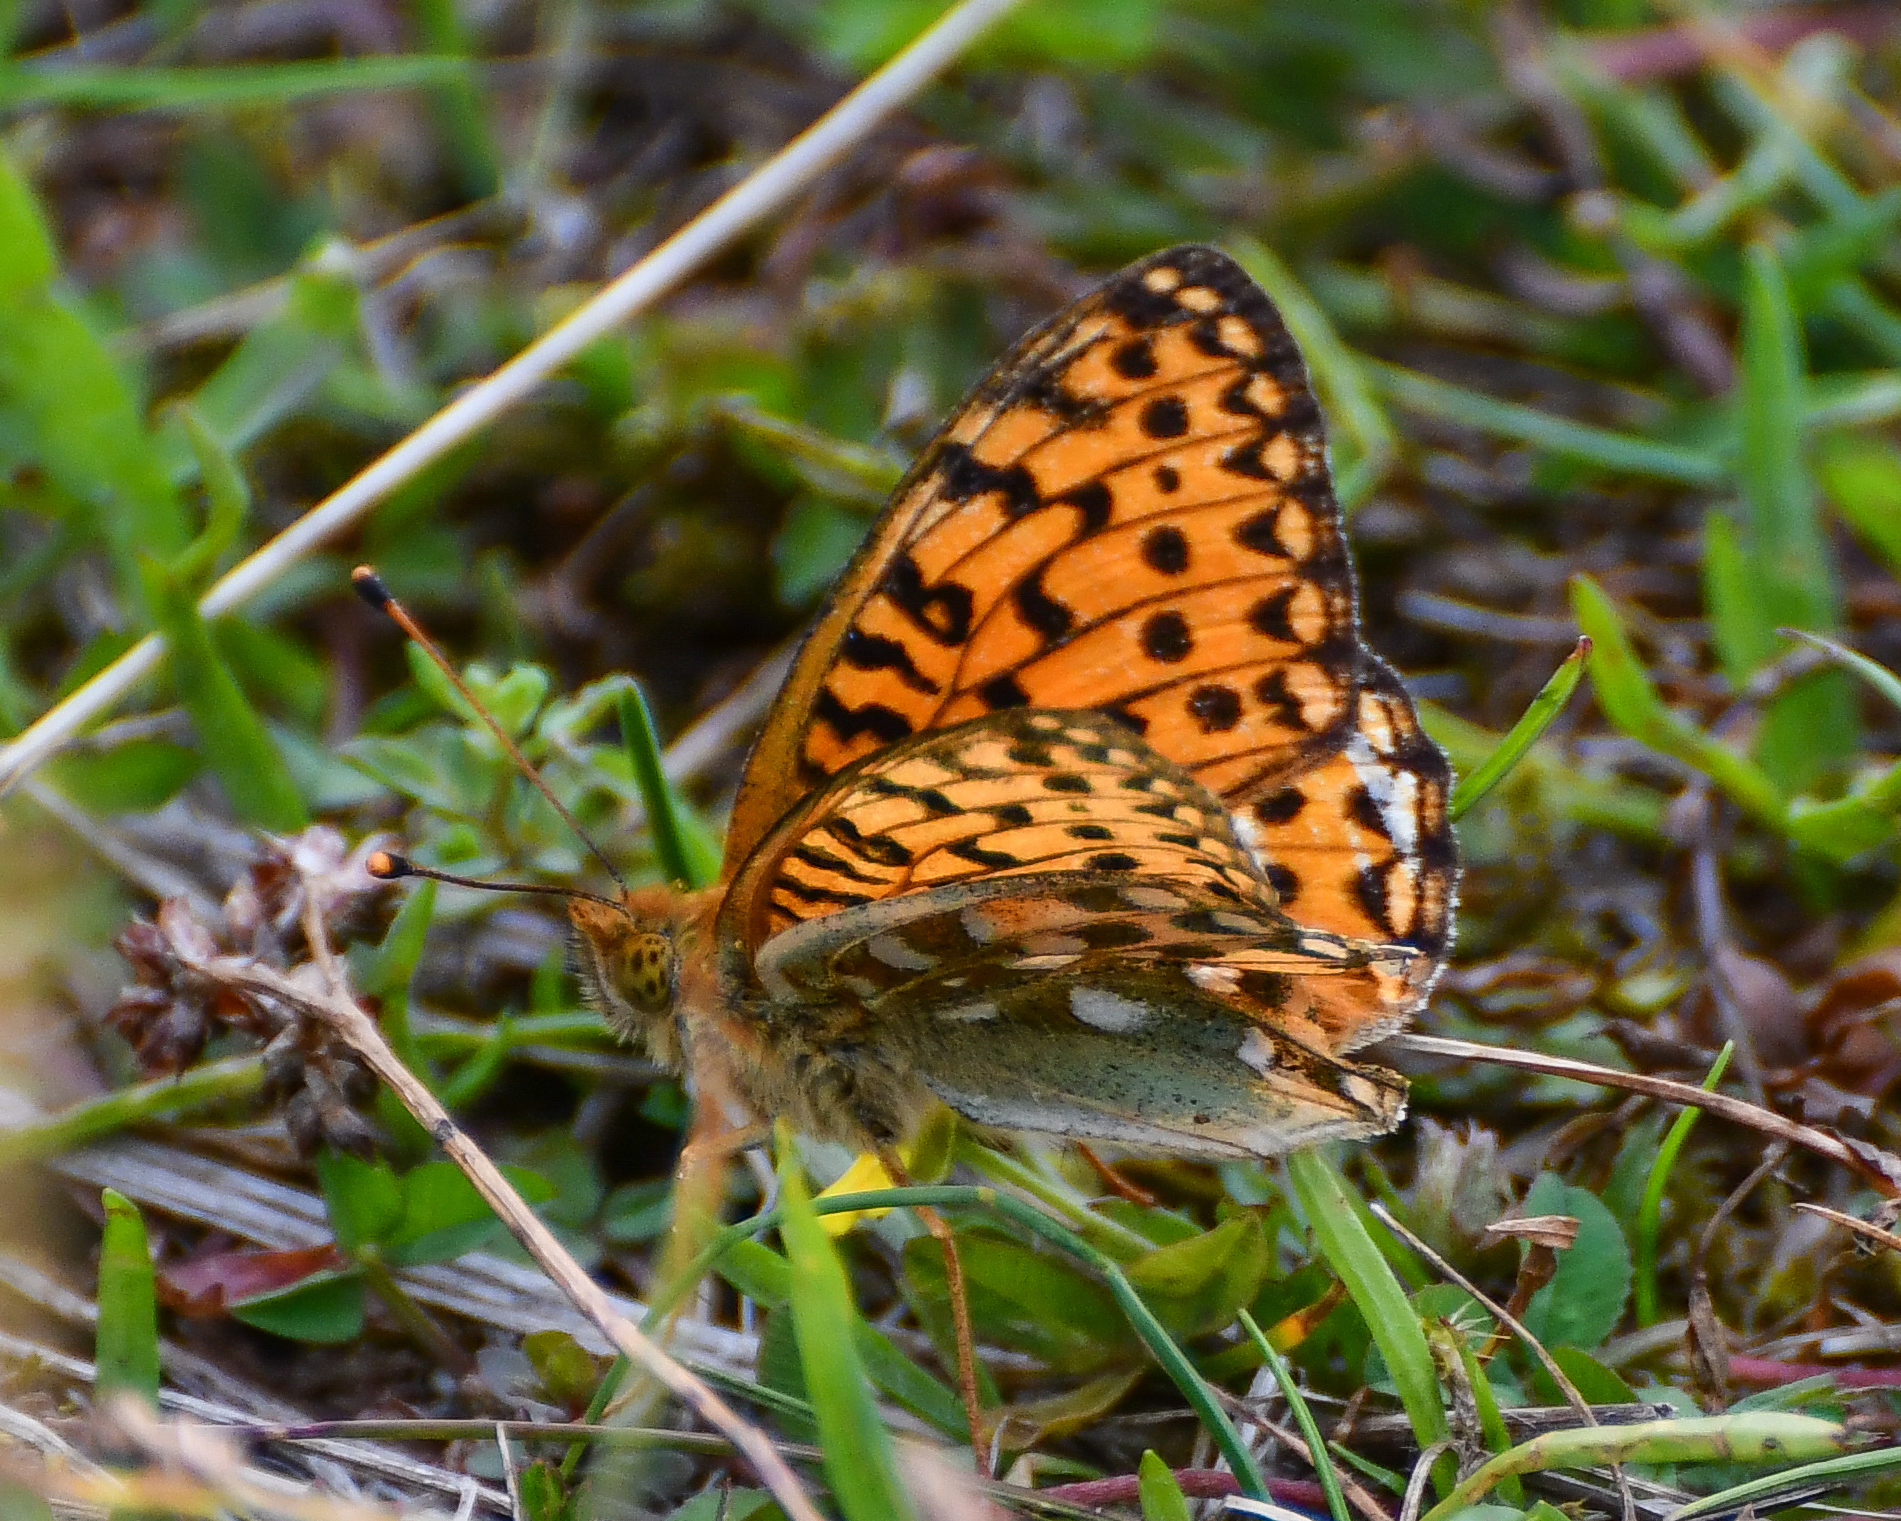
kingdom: Animalia
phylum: Arthropoda
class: Insecta
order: Lepidoptera
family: Nymphalidae
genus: Speyeria
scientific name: Speyeria aglaja
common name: Dark green fritillary
